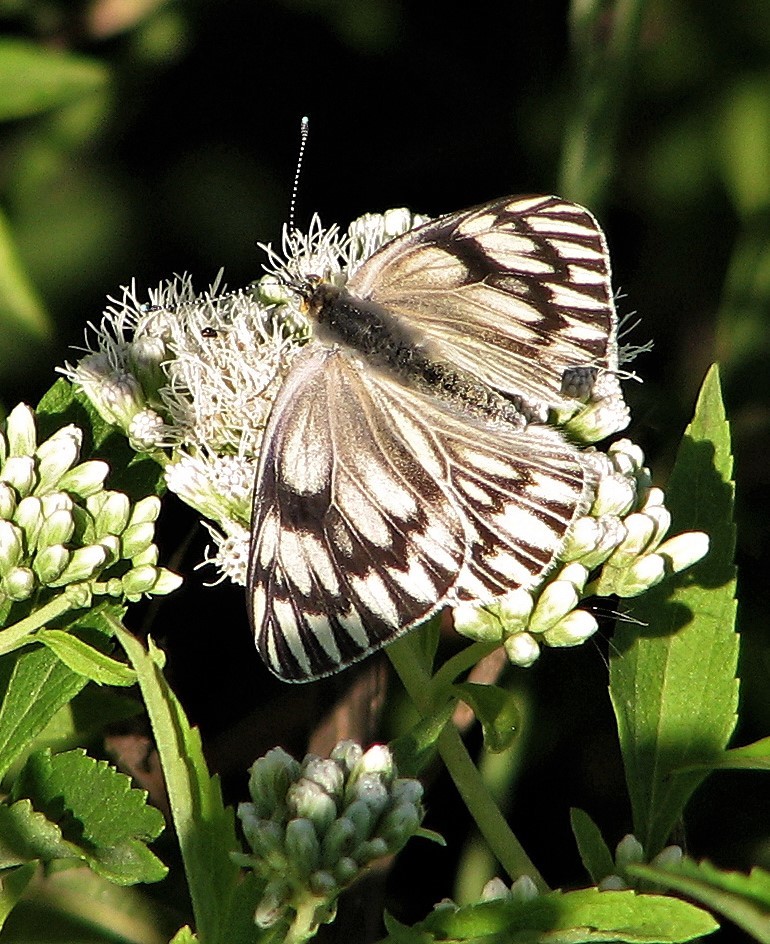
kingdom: Animalia
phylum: Arthropoda
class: Insecta
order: Lepidoptera
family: Pieridae
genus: Tatochila
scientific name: Tatochila mercedis
